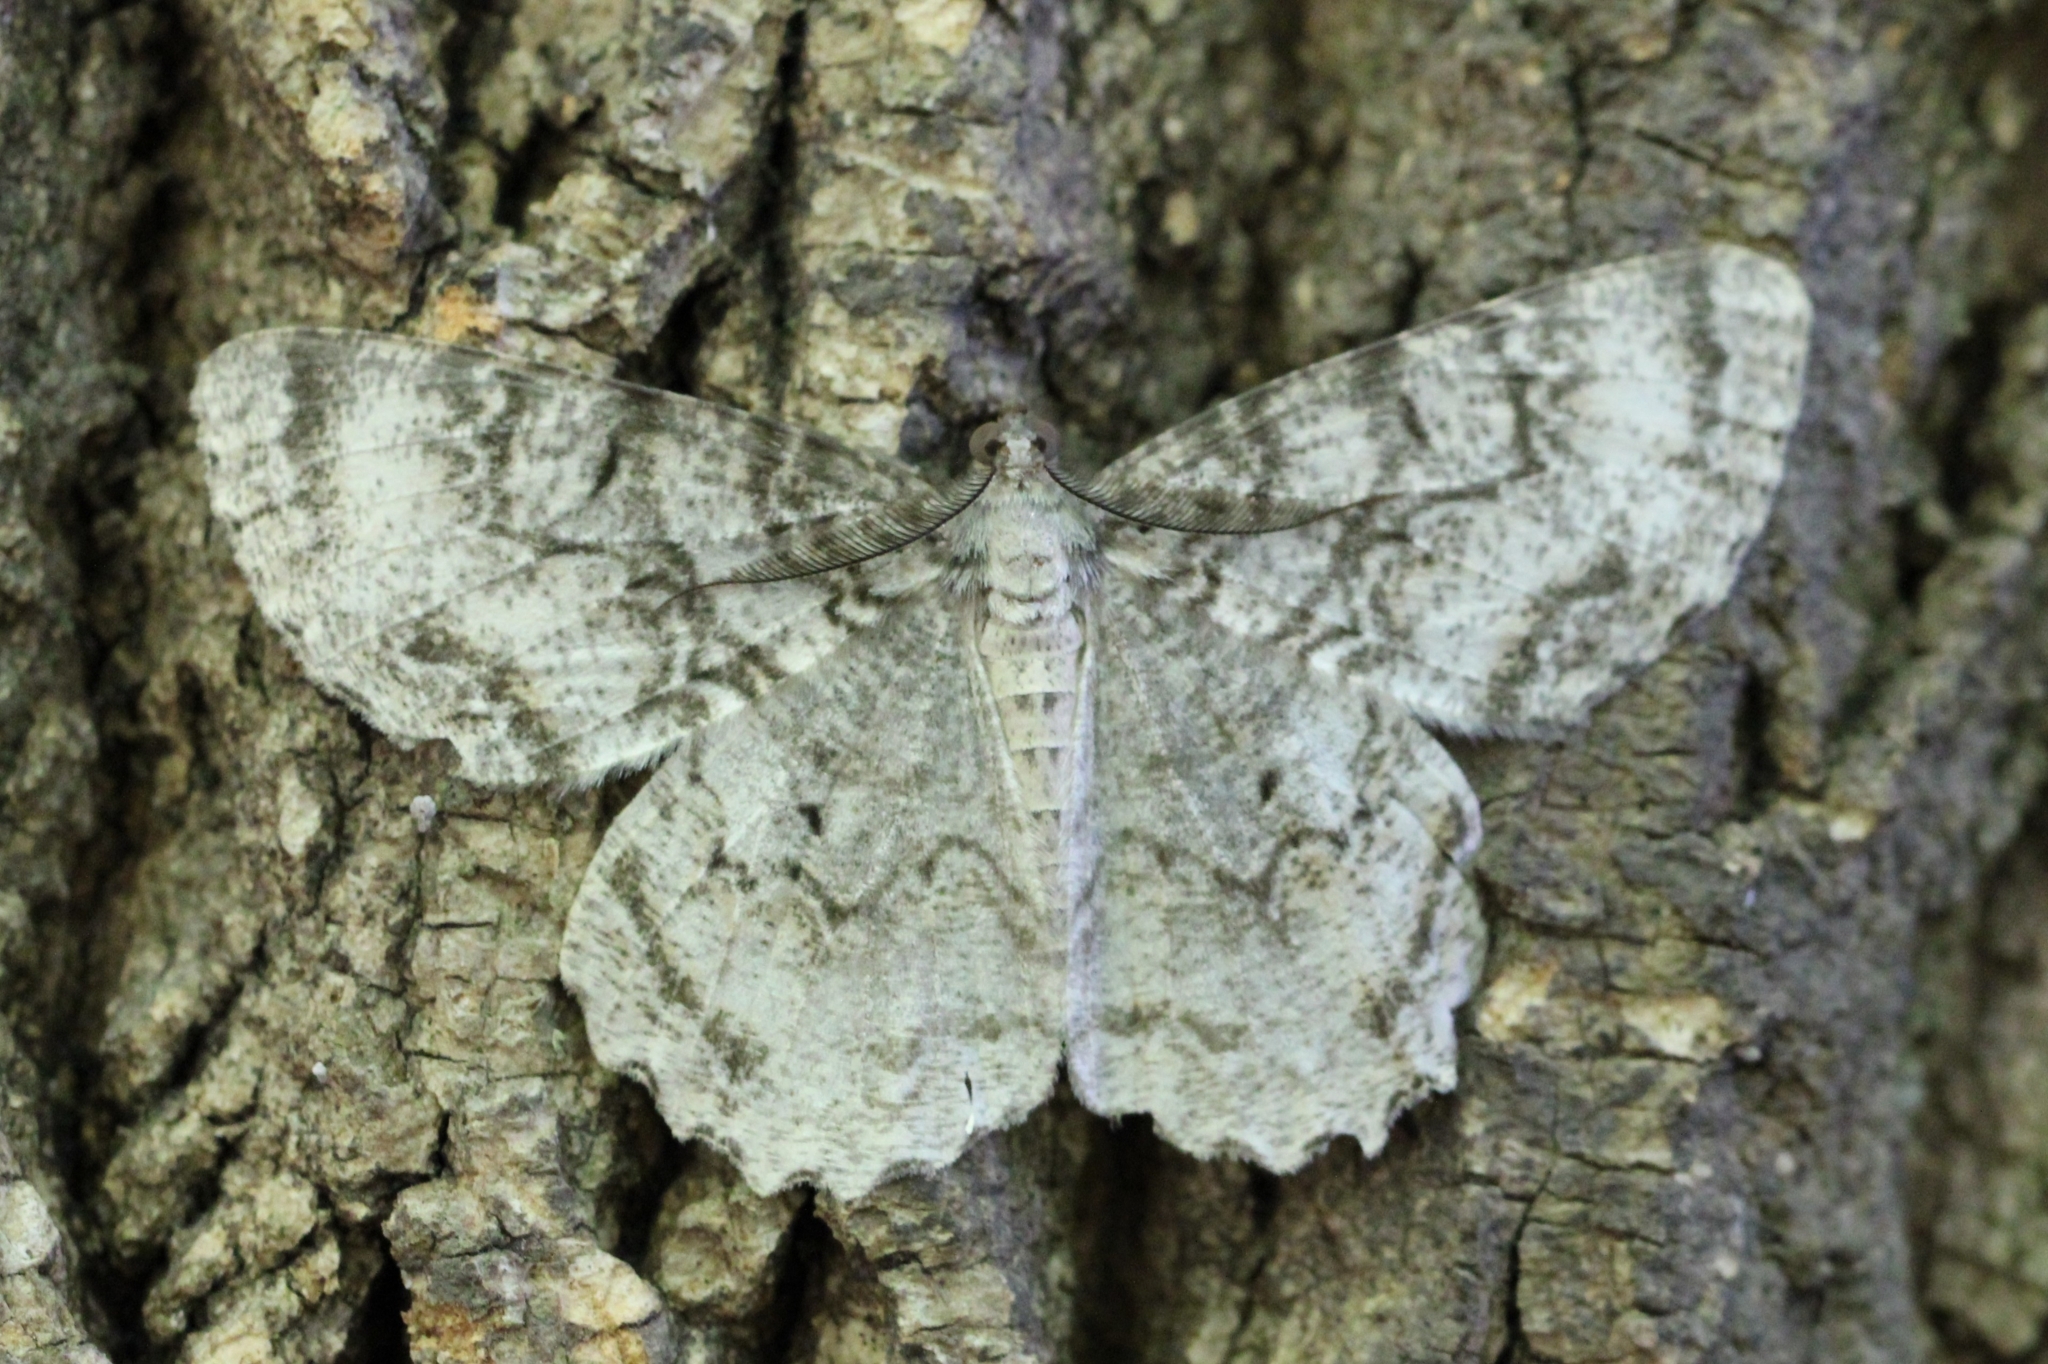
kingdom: Animalia
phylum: Arthropoda
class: Insecta
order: Lepidoptera
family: Geometridae
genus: Epimecis
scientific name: Epimecis hortaria
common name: Tulip-tree beauty
